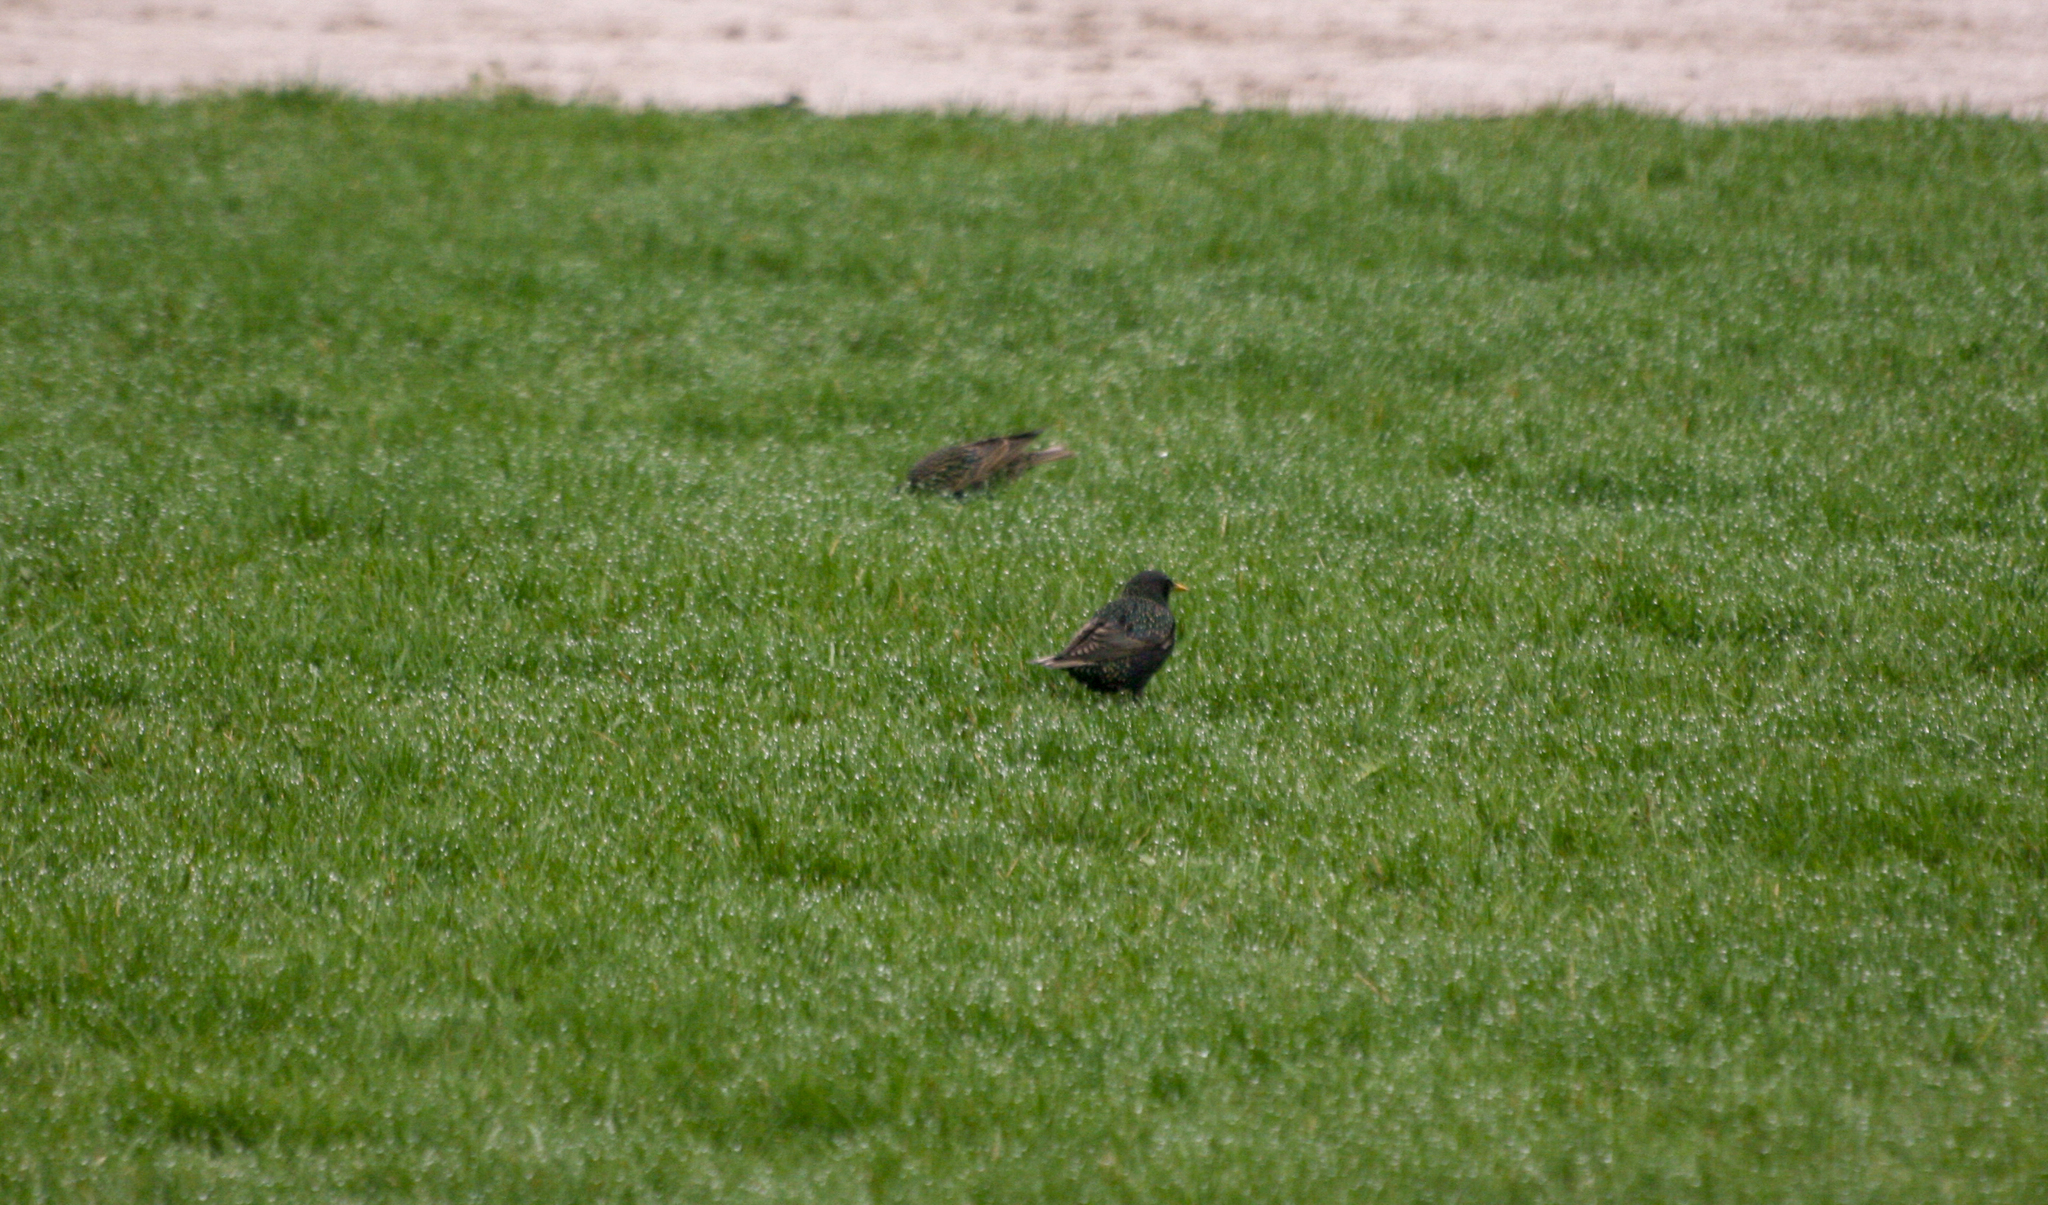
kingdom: Animalia
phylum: Chordata
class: Aves
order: Passeriformes
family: Sturnidae
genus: Sturnus
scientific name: Sturnus vulgaris
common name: Common starling
